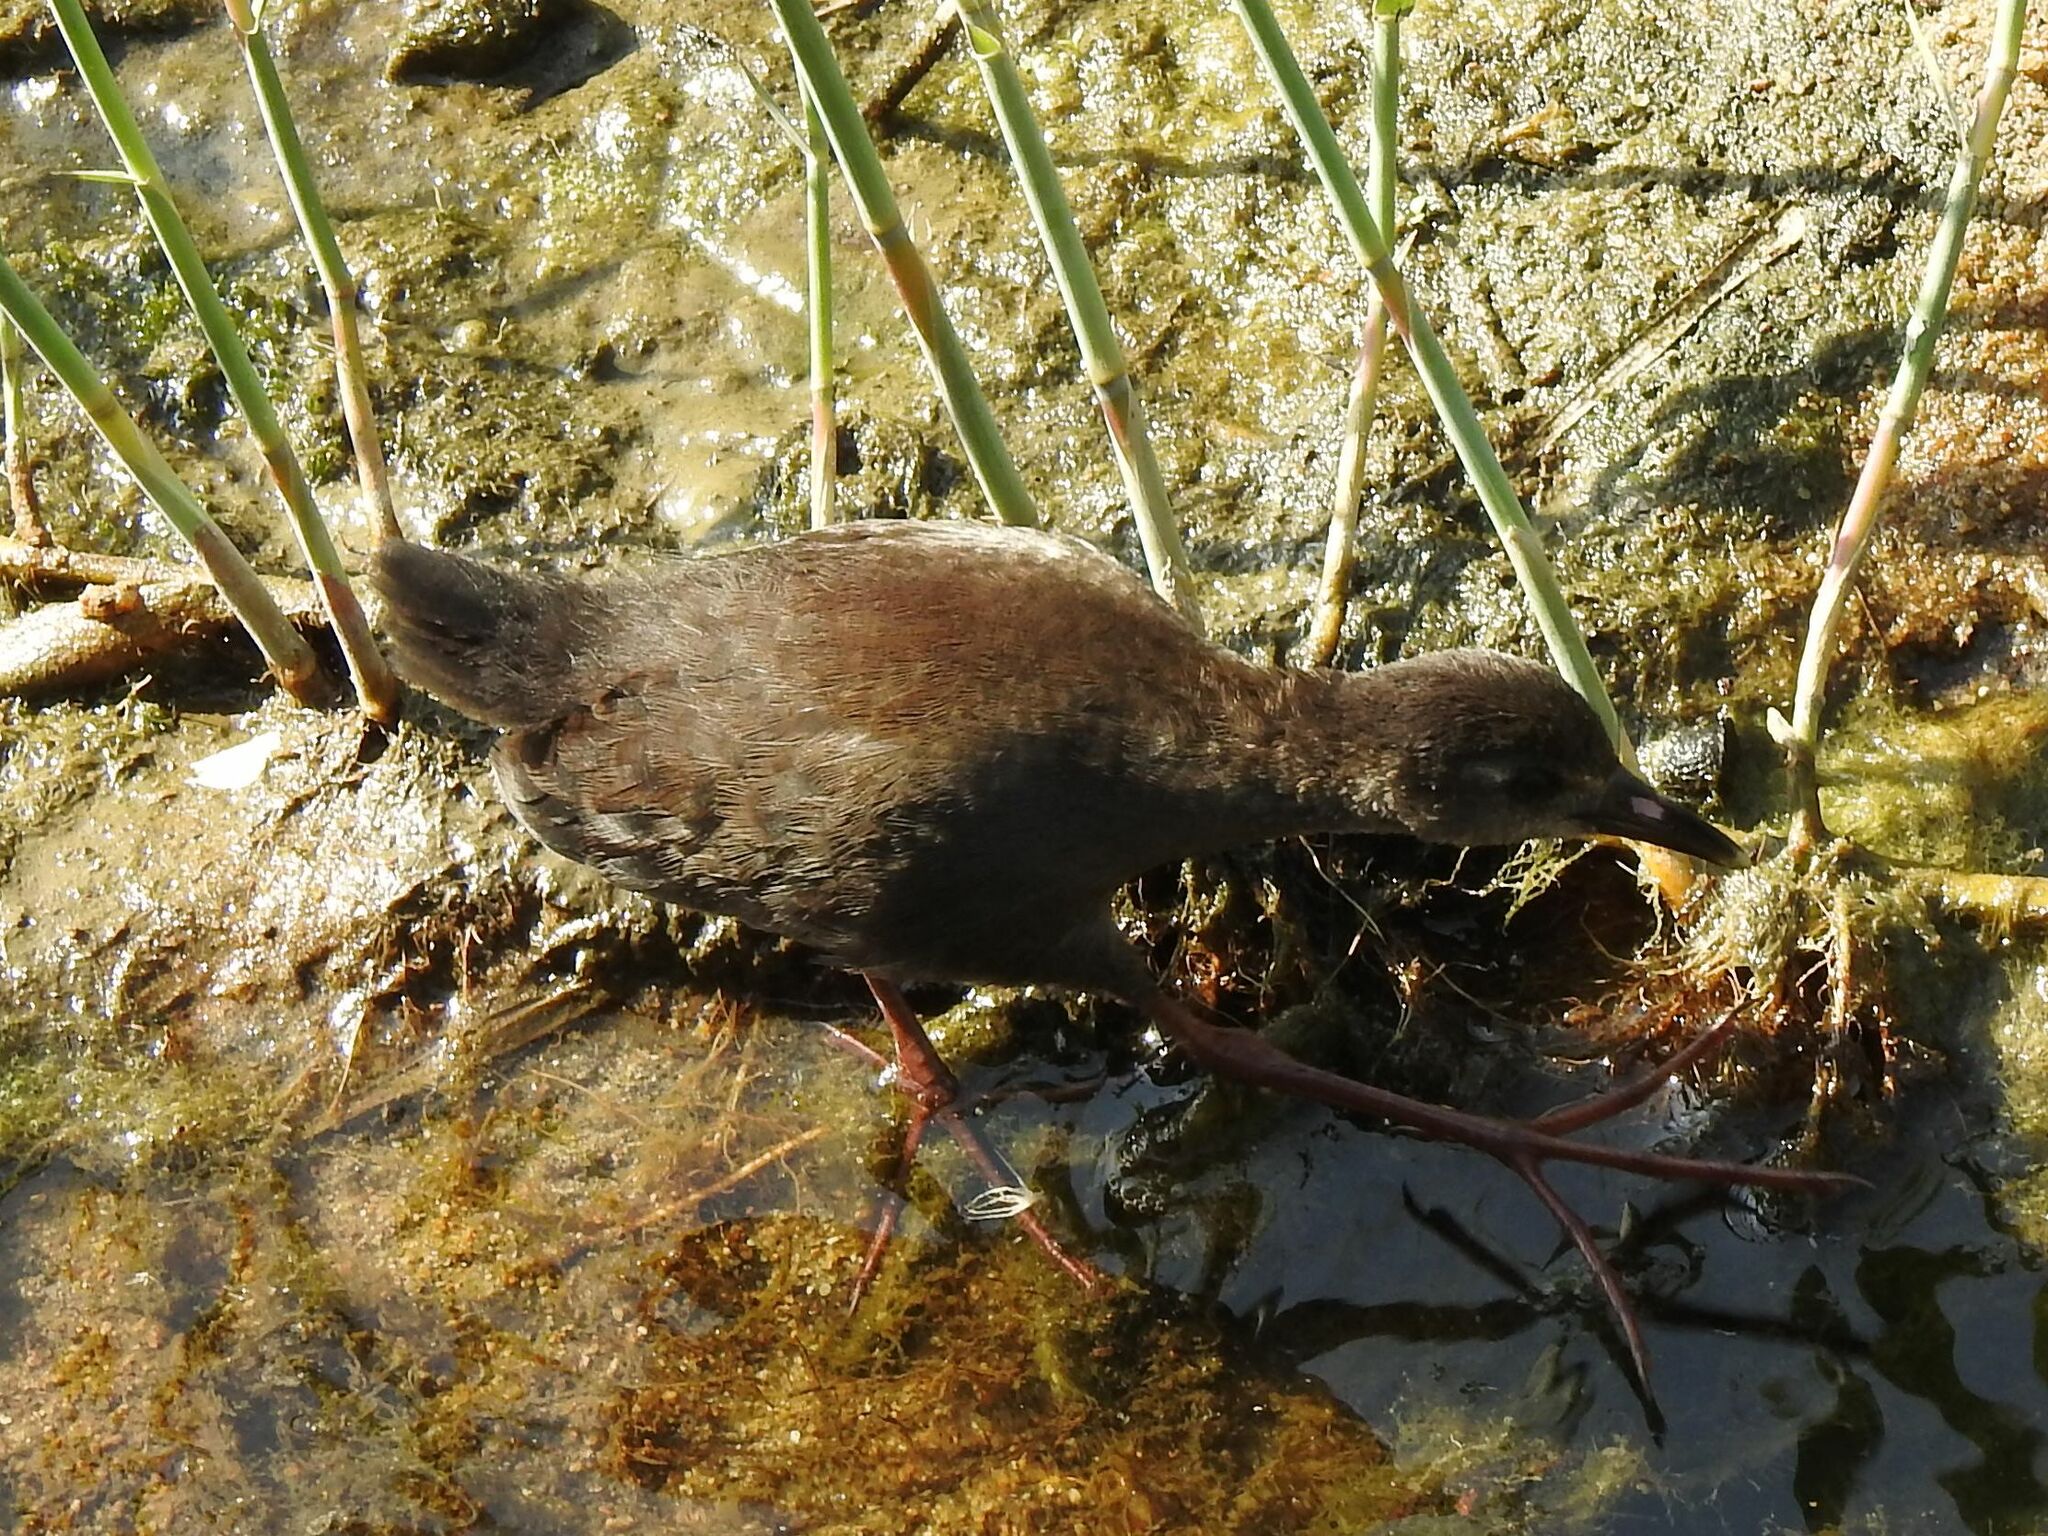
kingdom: Animalia
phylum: Chordata
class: Aves
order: Gruiformes
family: Rallidae
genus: Amaurornis
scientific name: Amaurornis flavirostra
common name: Black crake
